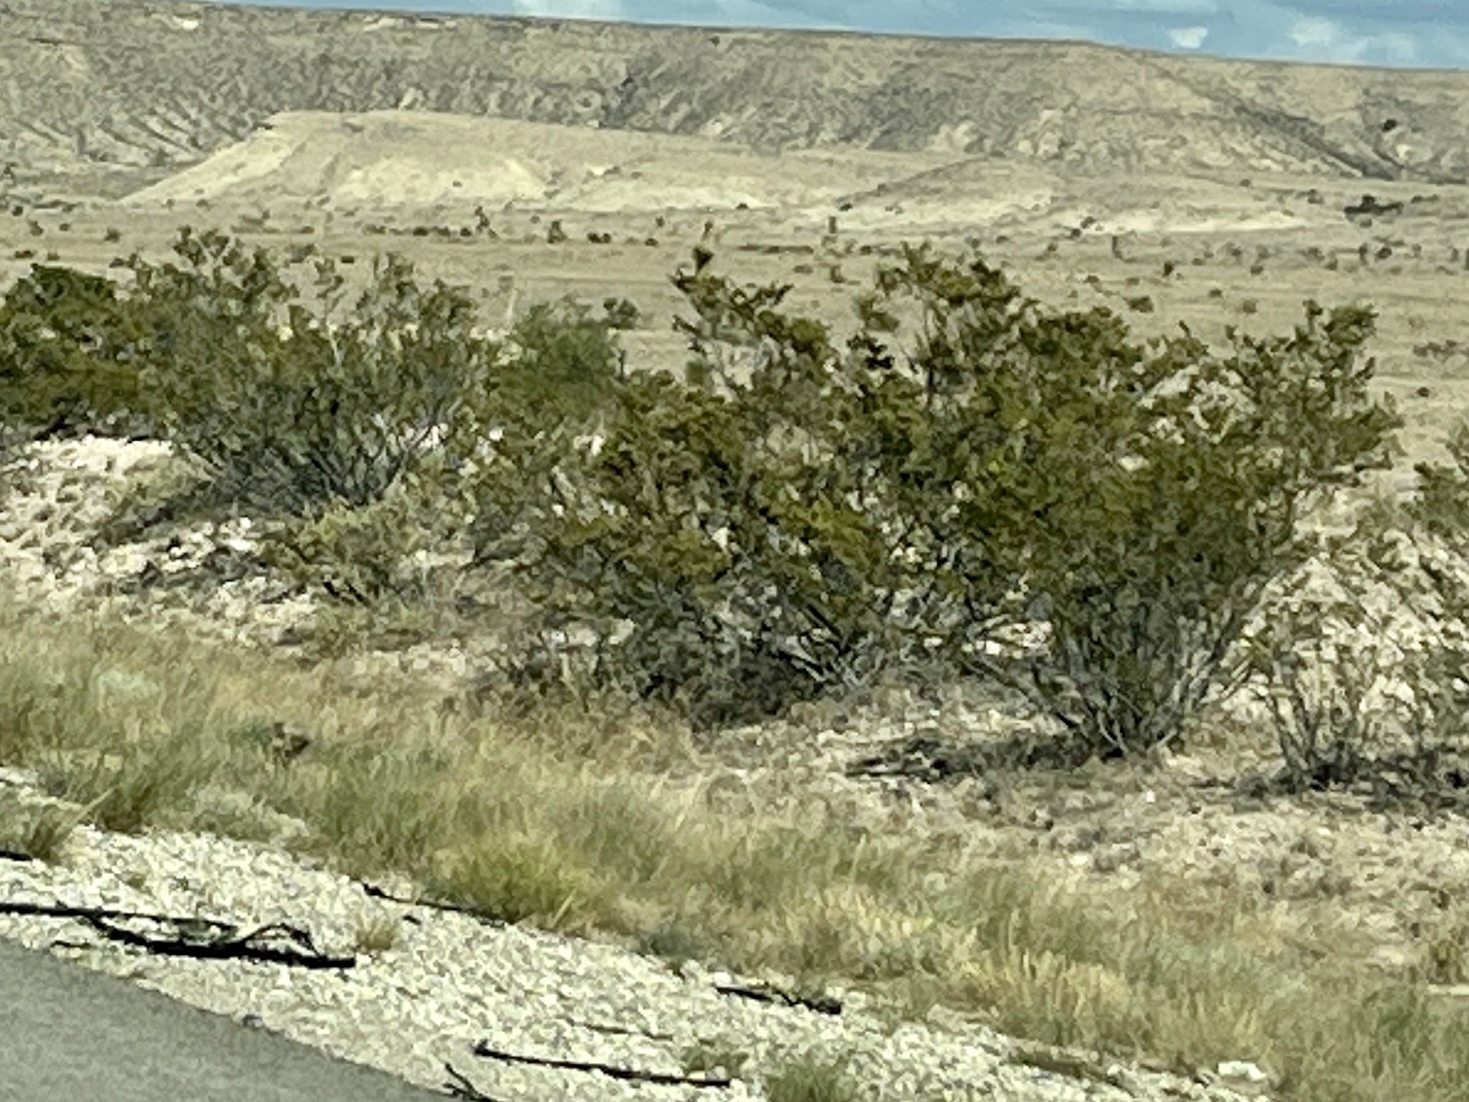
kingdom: Plantae
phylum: Tracheophyta
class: Magnoliopsida
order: Zygophyllales
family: Zygophyllaceae
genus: Larrea
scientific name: Larrea tridentata
